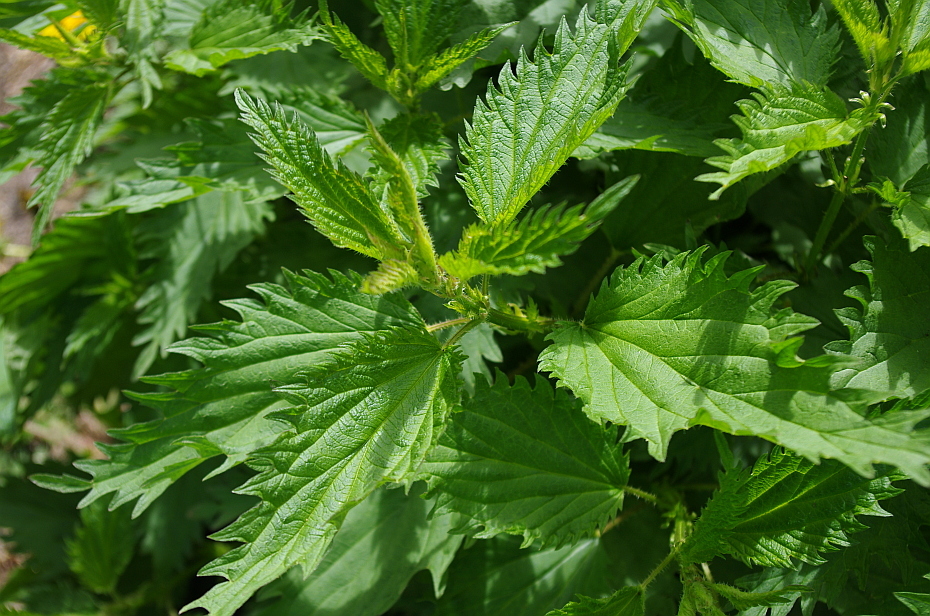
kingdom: Plantae
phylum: Tracheophyta
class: Magnoliopsida
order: Rosales
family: Urticaceae
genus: Urtica
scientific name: Urtica dioica
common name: Common nettle
